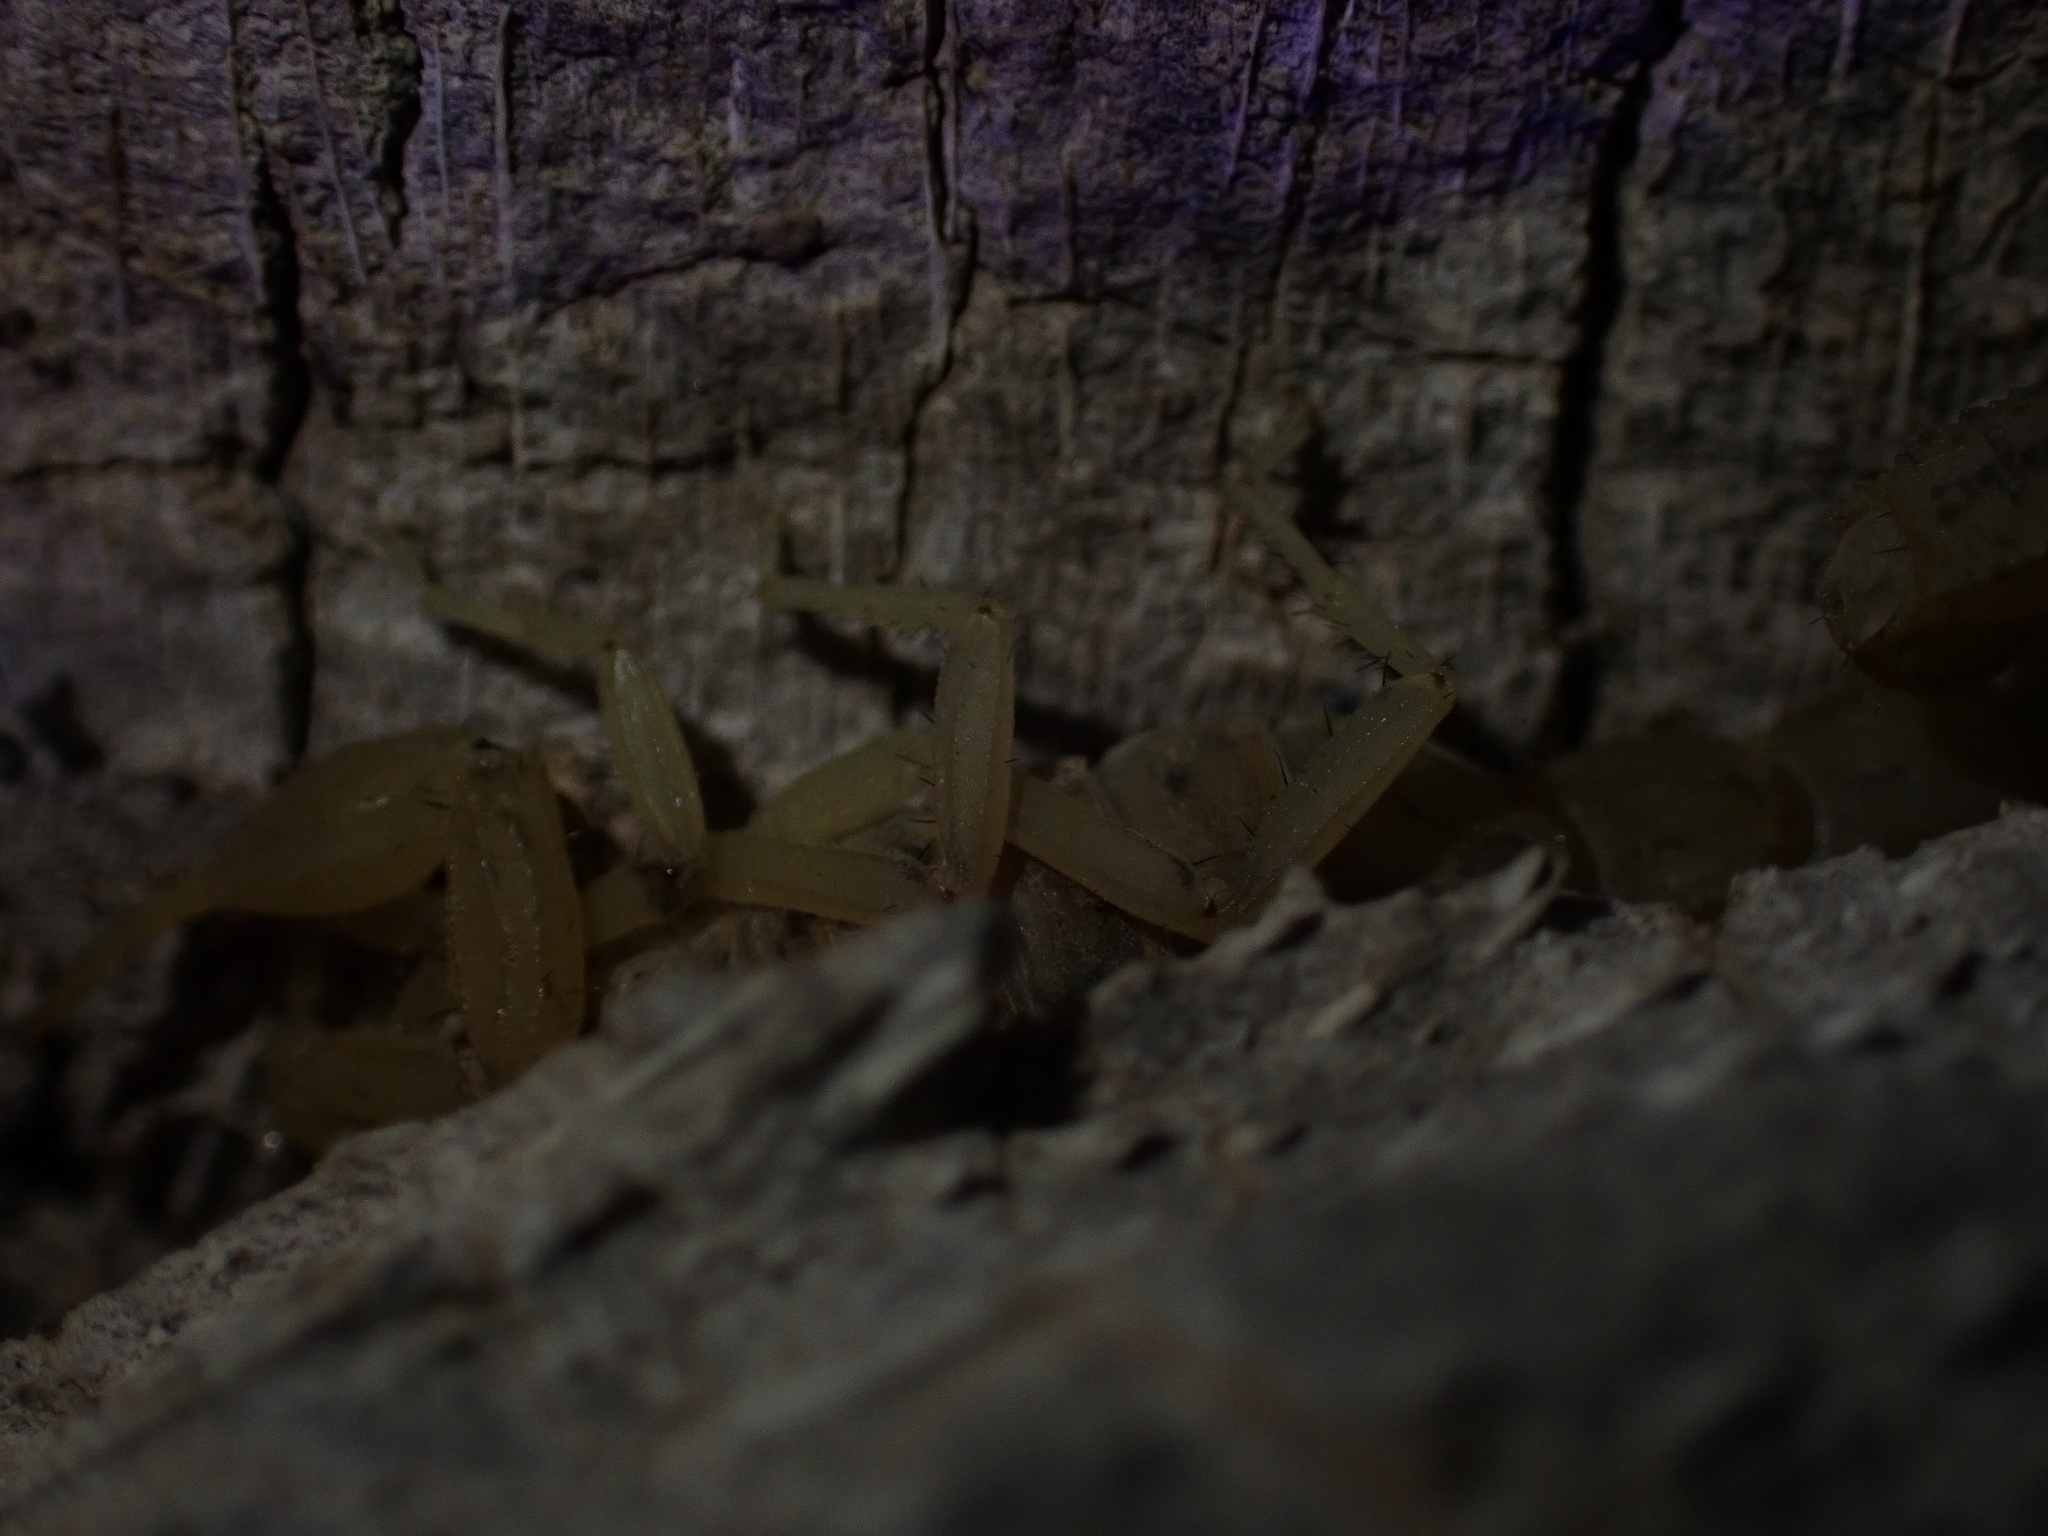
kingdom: Animalia
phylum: Arthropoda
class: Arachnida
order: Scorpiones
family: Buthidae
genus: Mesobuthus
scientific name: Mesobuthus mirshamsii
